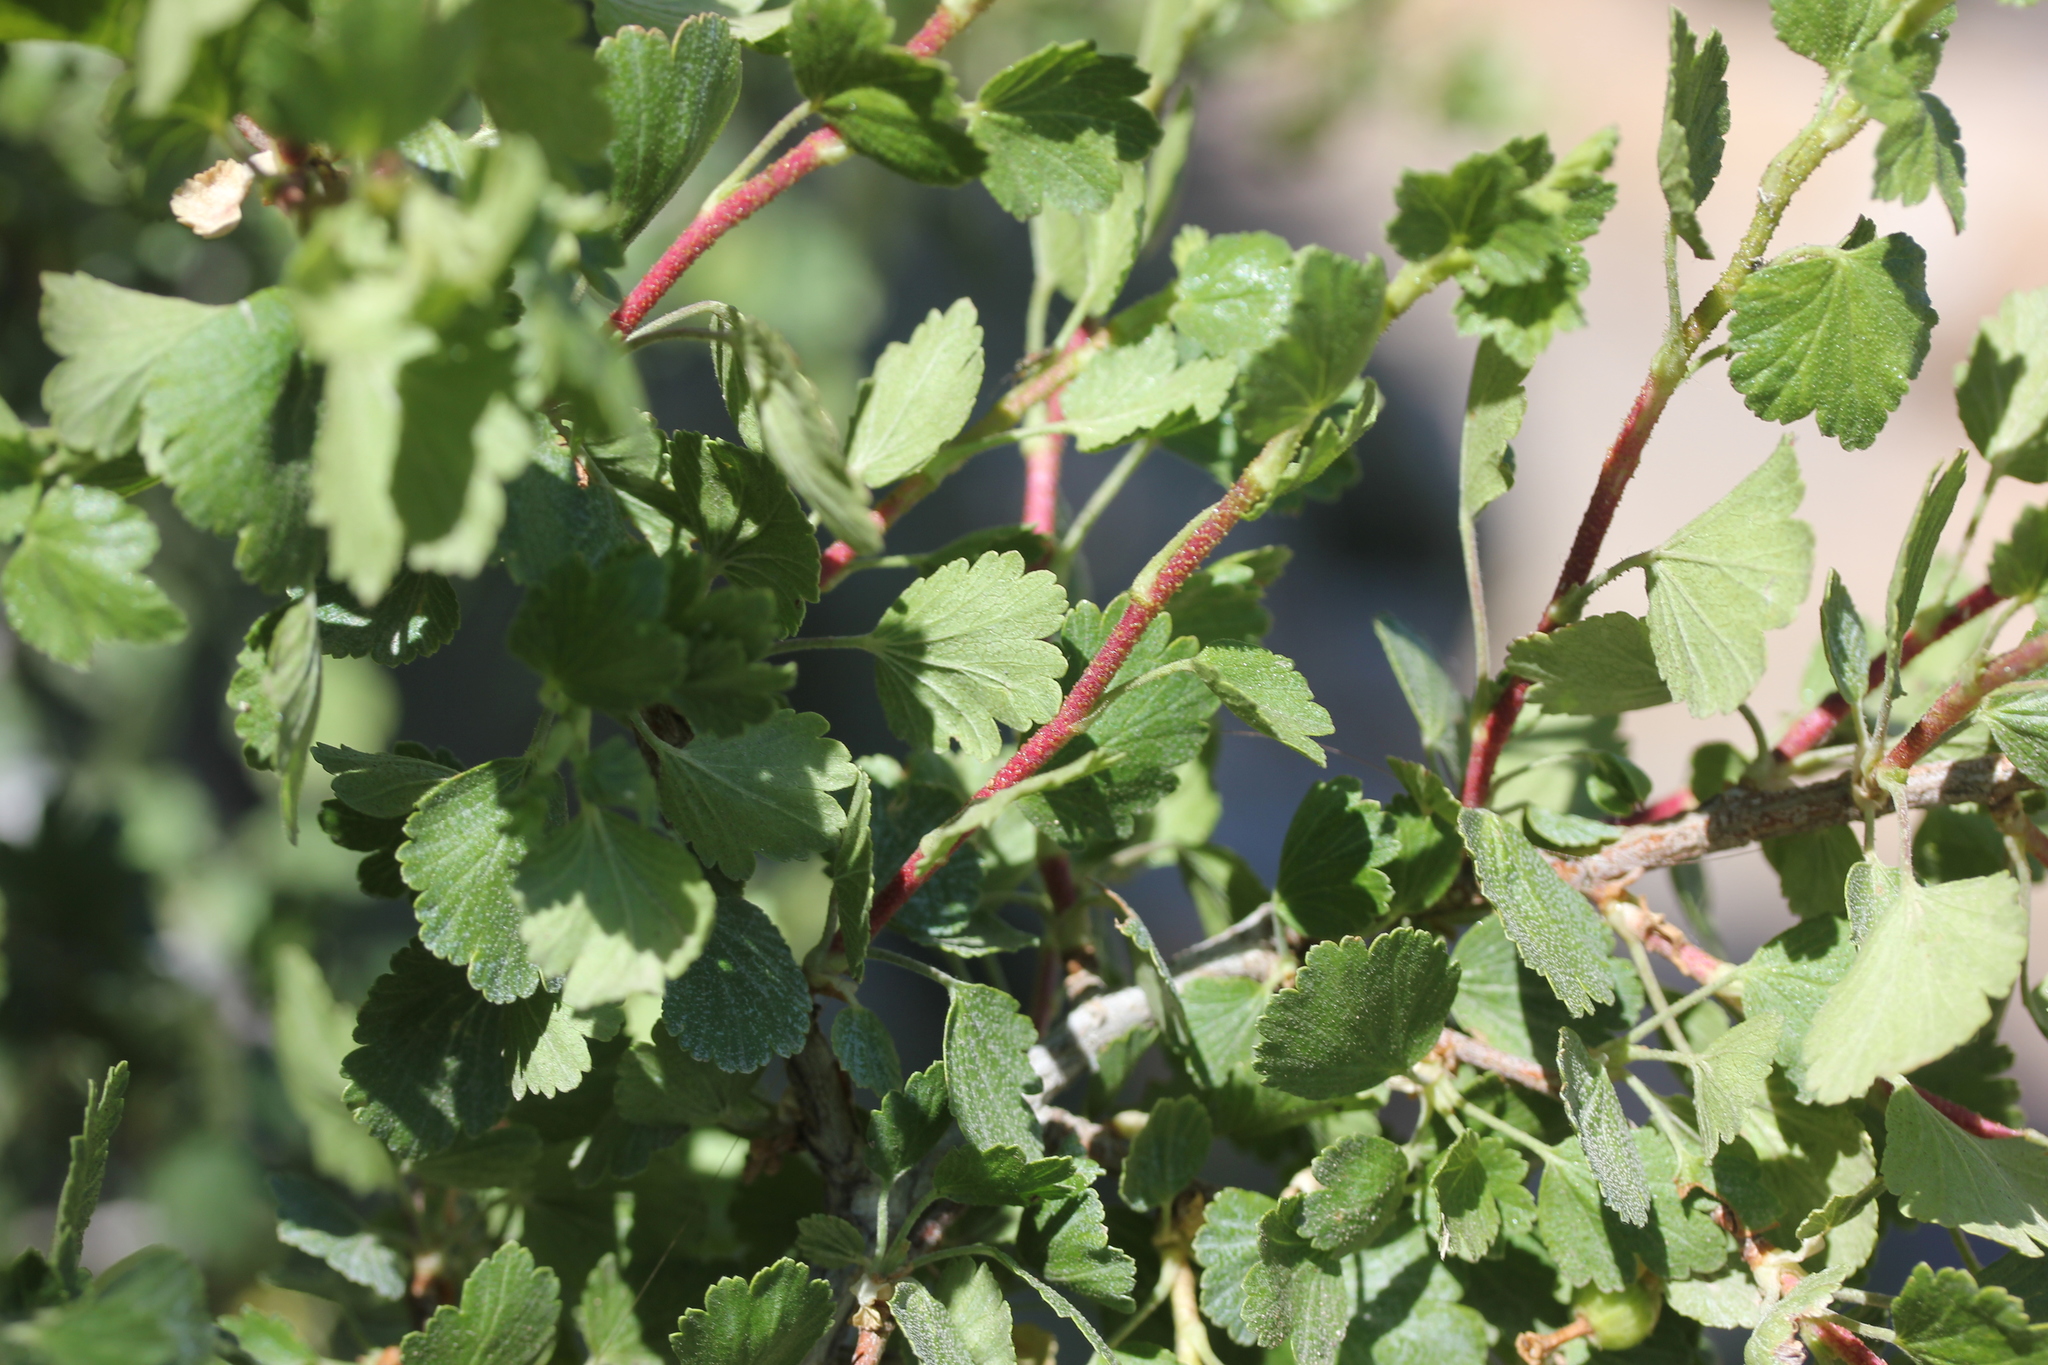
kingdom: Plantae
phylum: Tracheophyta
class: Magnoliopsida
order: Saxifragales
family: Grossulariaceae
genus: Ribes
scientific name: Ribes cereum
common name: Wax currant
